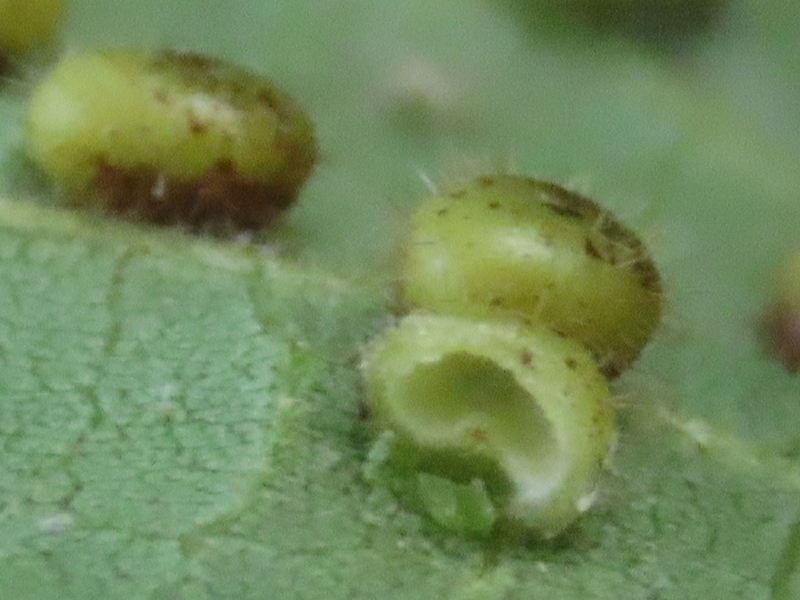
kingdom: Animalia
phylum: Arthropoda
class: Insecta
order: Diptera
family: Cecidomyiidae
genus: Caryomyia
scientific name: Caryomyia thompsoni
